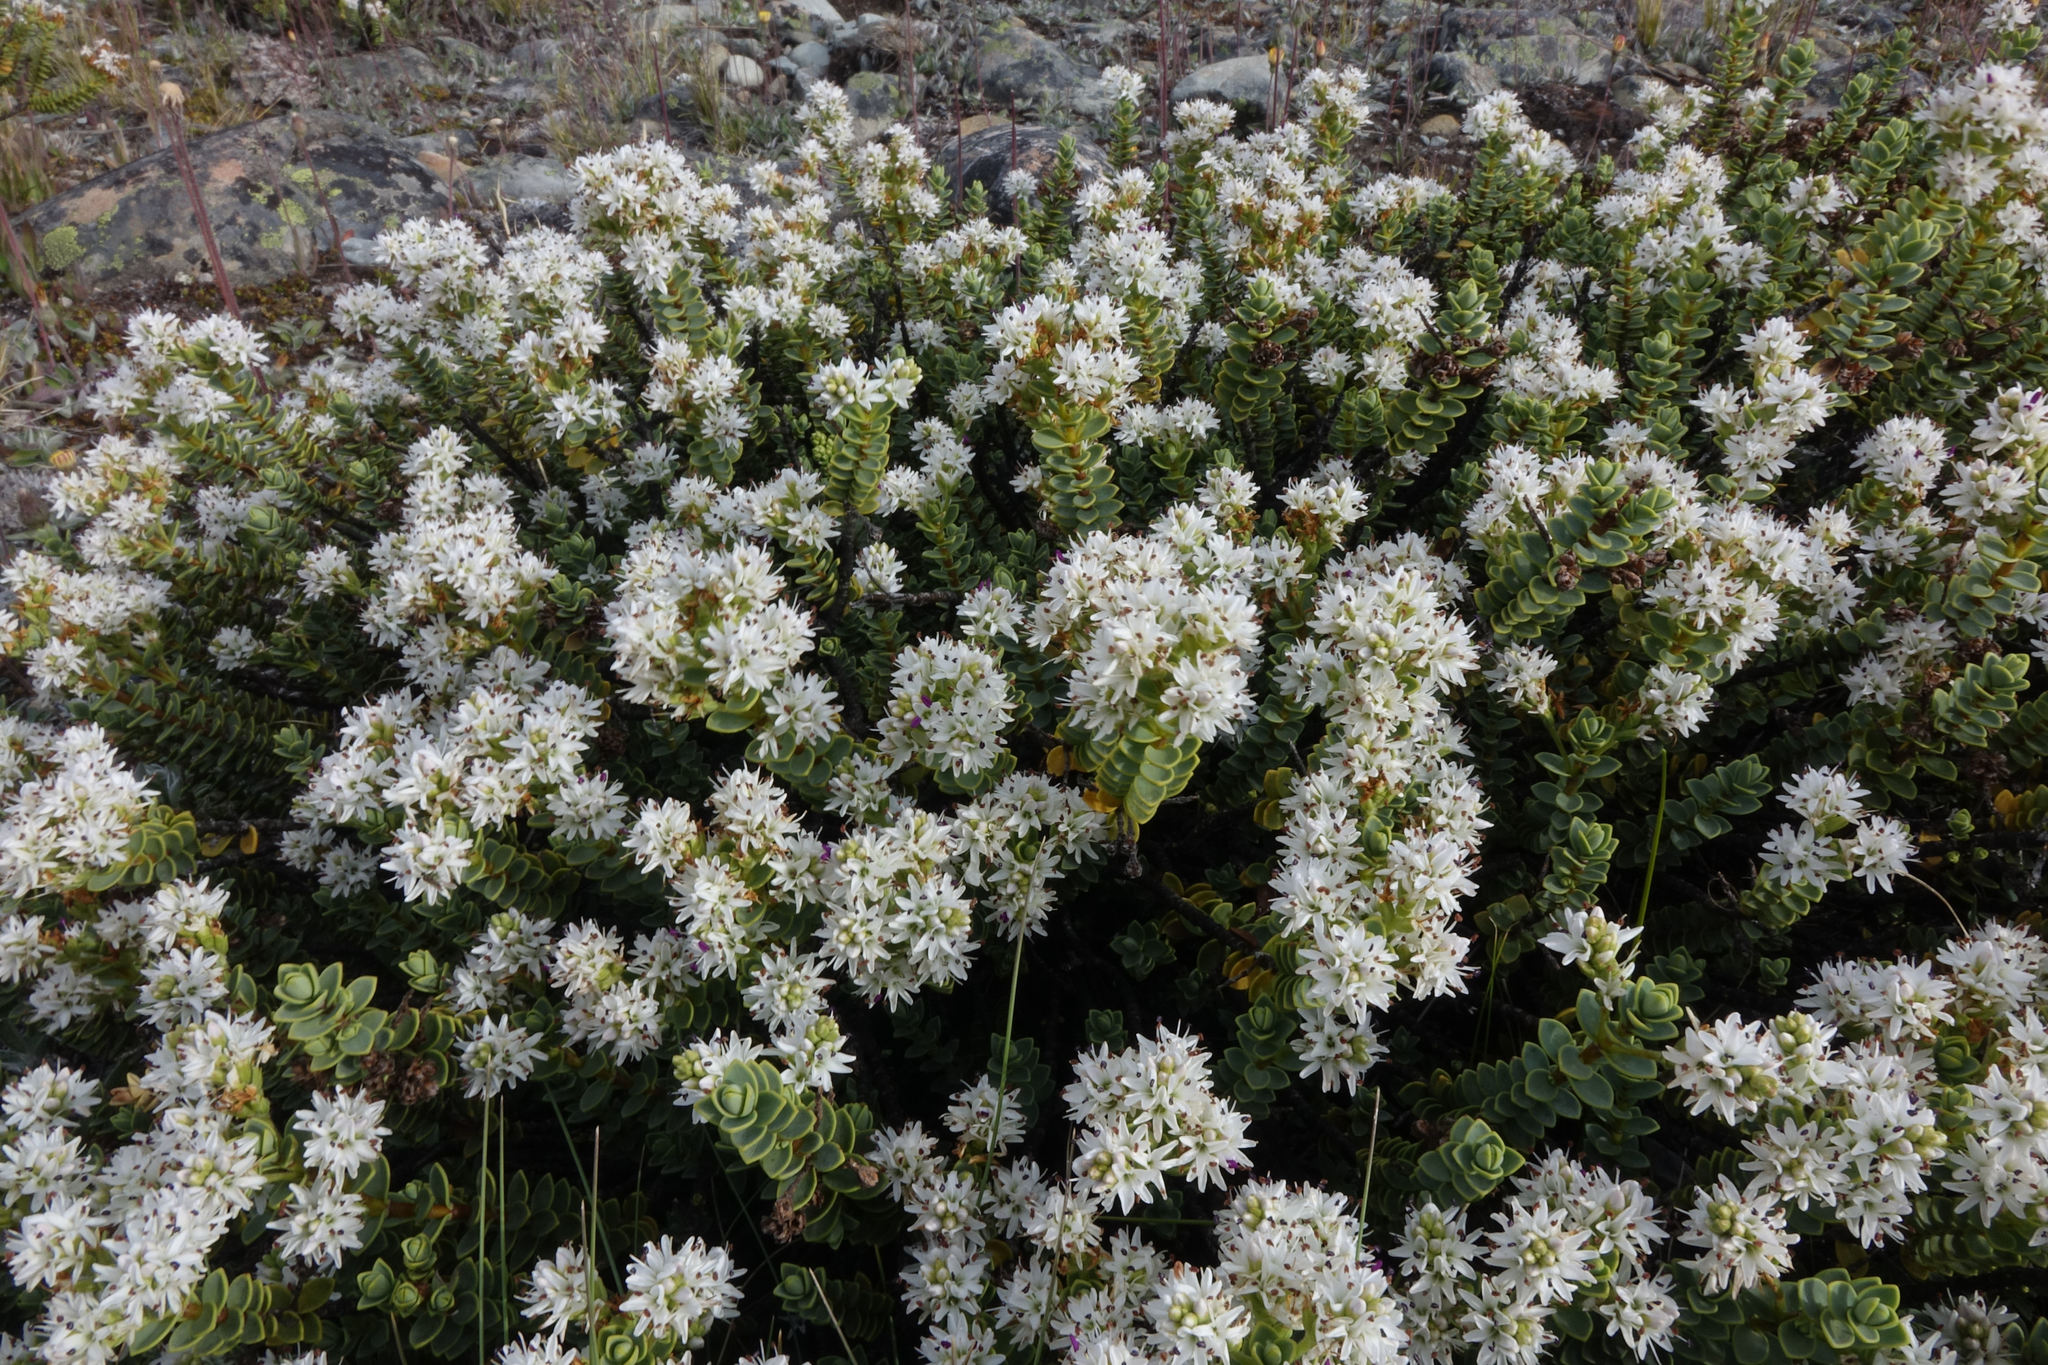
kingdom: Plantae
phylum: Tracheophyta
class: Magnoliopsida
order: Lamiales
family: Plantaginaceae
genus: Veronica
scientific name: Veronica buchananii
